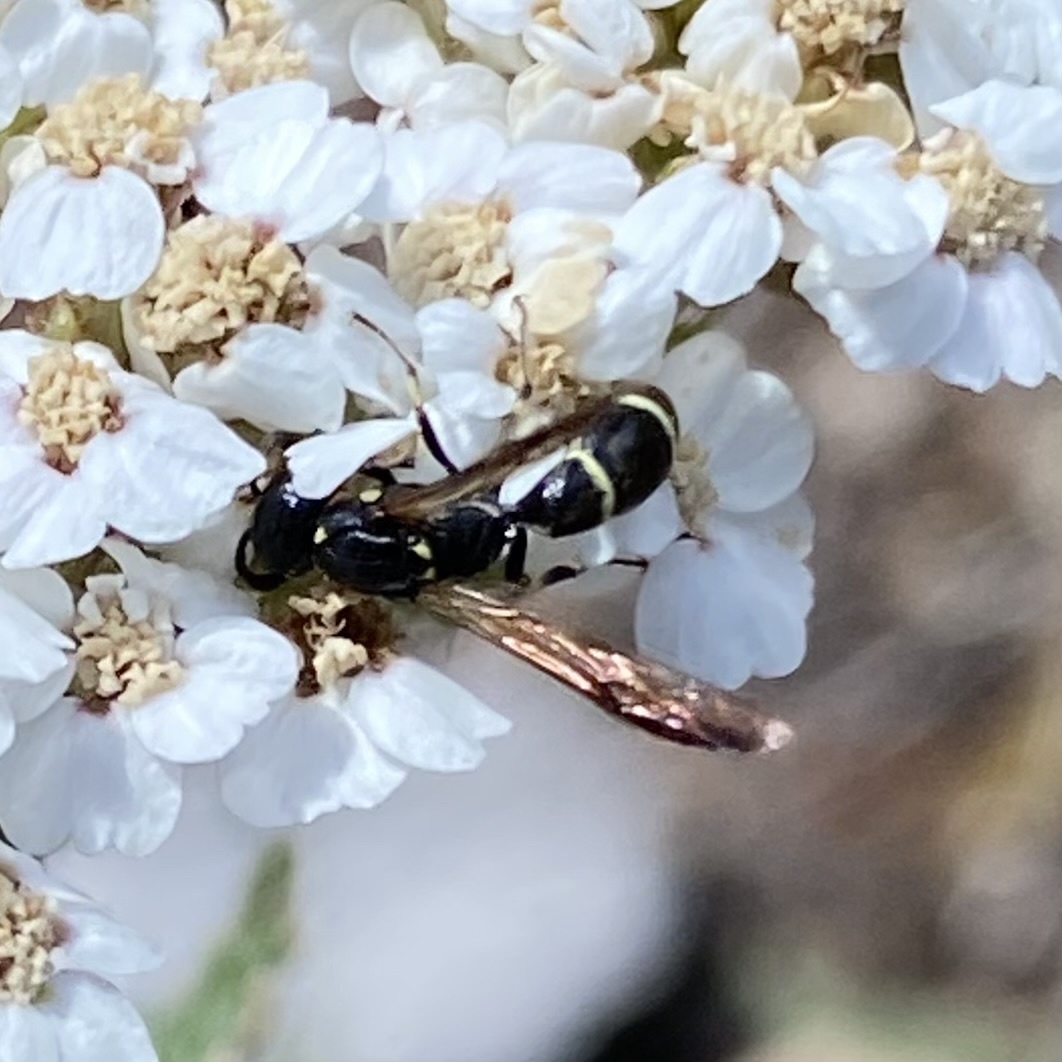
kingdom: Animalia
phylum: Arthropoda
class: Insecta
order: Hymenoptera
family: Eumenidae
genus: Symmorphus
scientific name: Symmorphus
